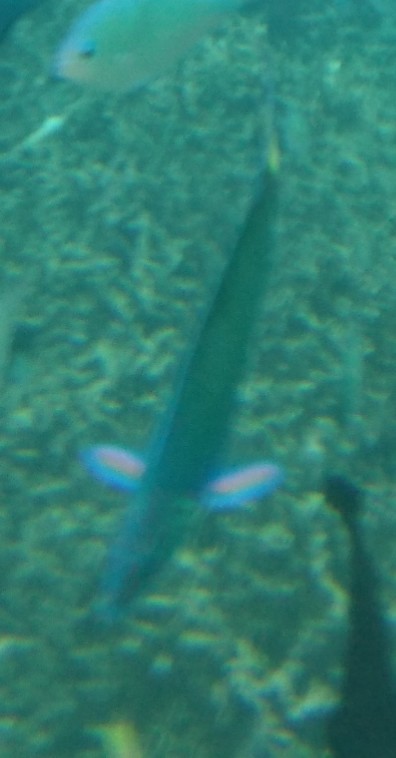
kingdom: Animalia
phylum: Chordata
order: Perciformes
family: Labridae
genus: Thalassoma
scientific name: Thalassoma lunare
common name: Blue wrasse
